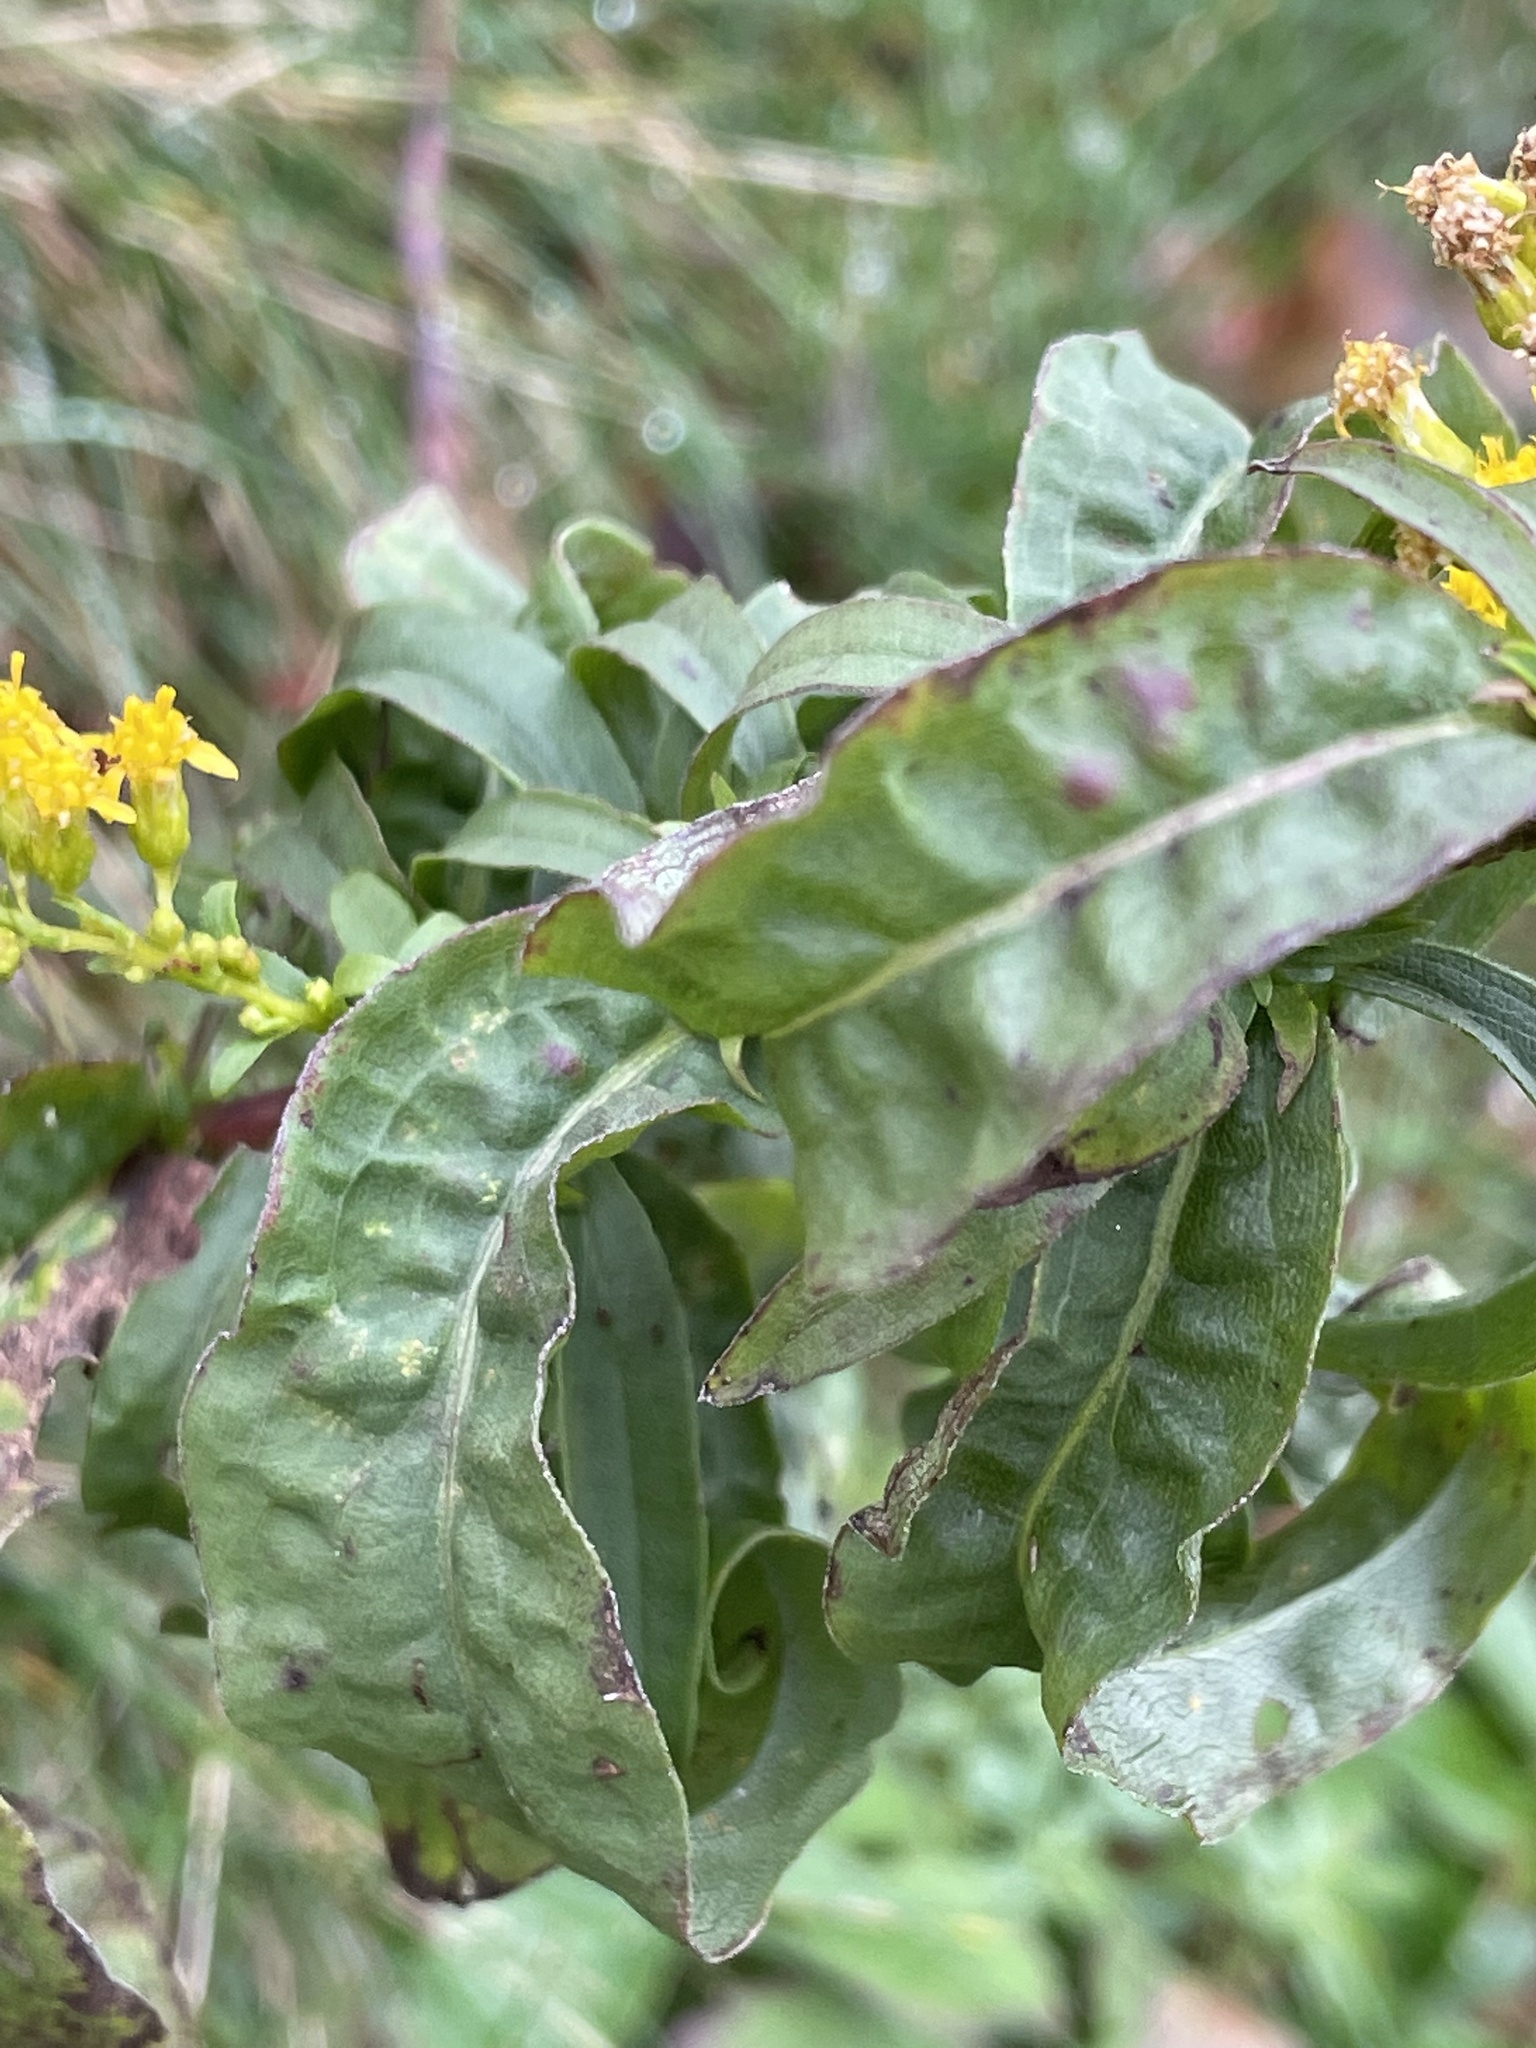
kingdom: Plantae
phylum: Tracheophyta
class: Magnoliopsida
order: Asterales
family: Asteraceae
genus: Solidago
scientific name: Solidago gigantea
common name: Giant goldenrod
